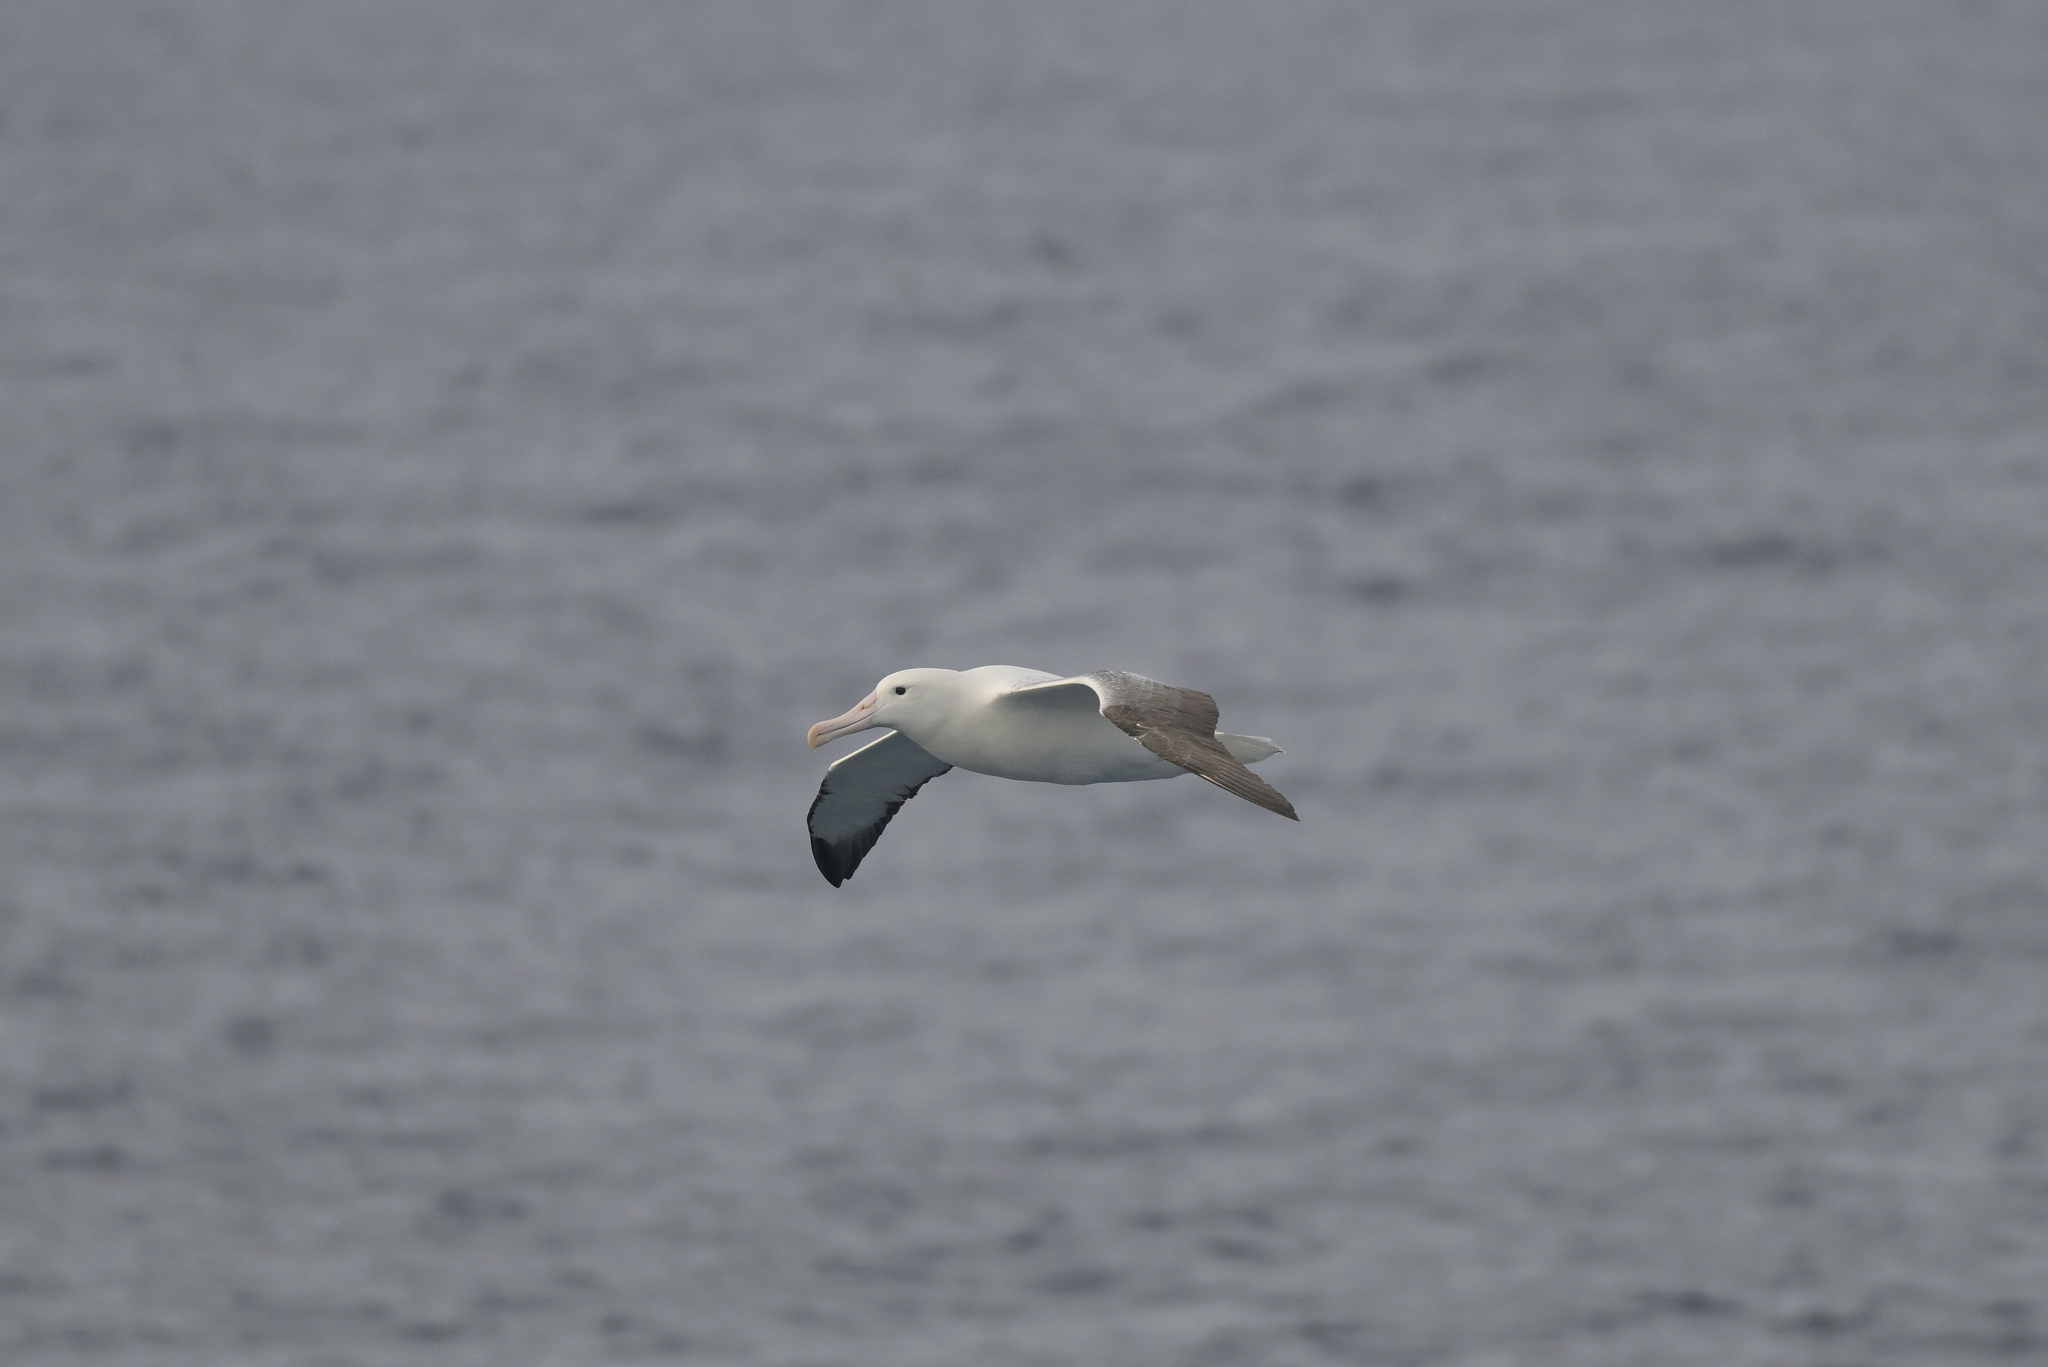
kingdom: Animalia
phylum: Chordata
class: Aves
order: Procellariiformes
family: Diomedeidae
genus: Diomedea
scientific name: Diomedea epomophora
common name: Southern royal albatross
